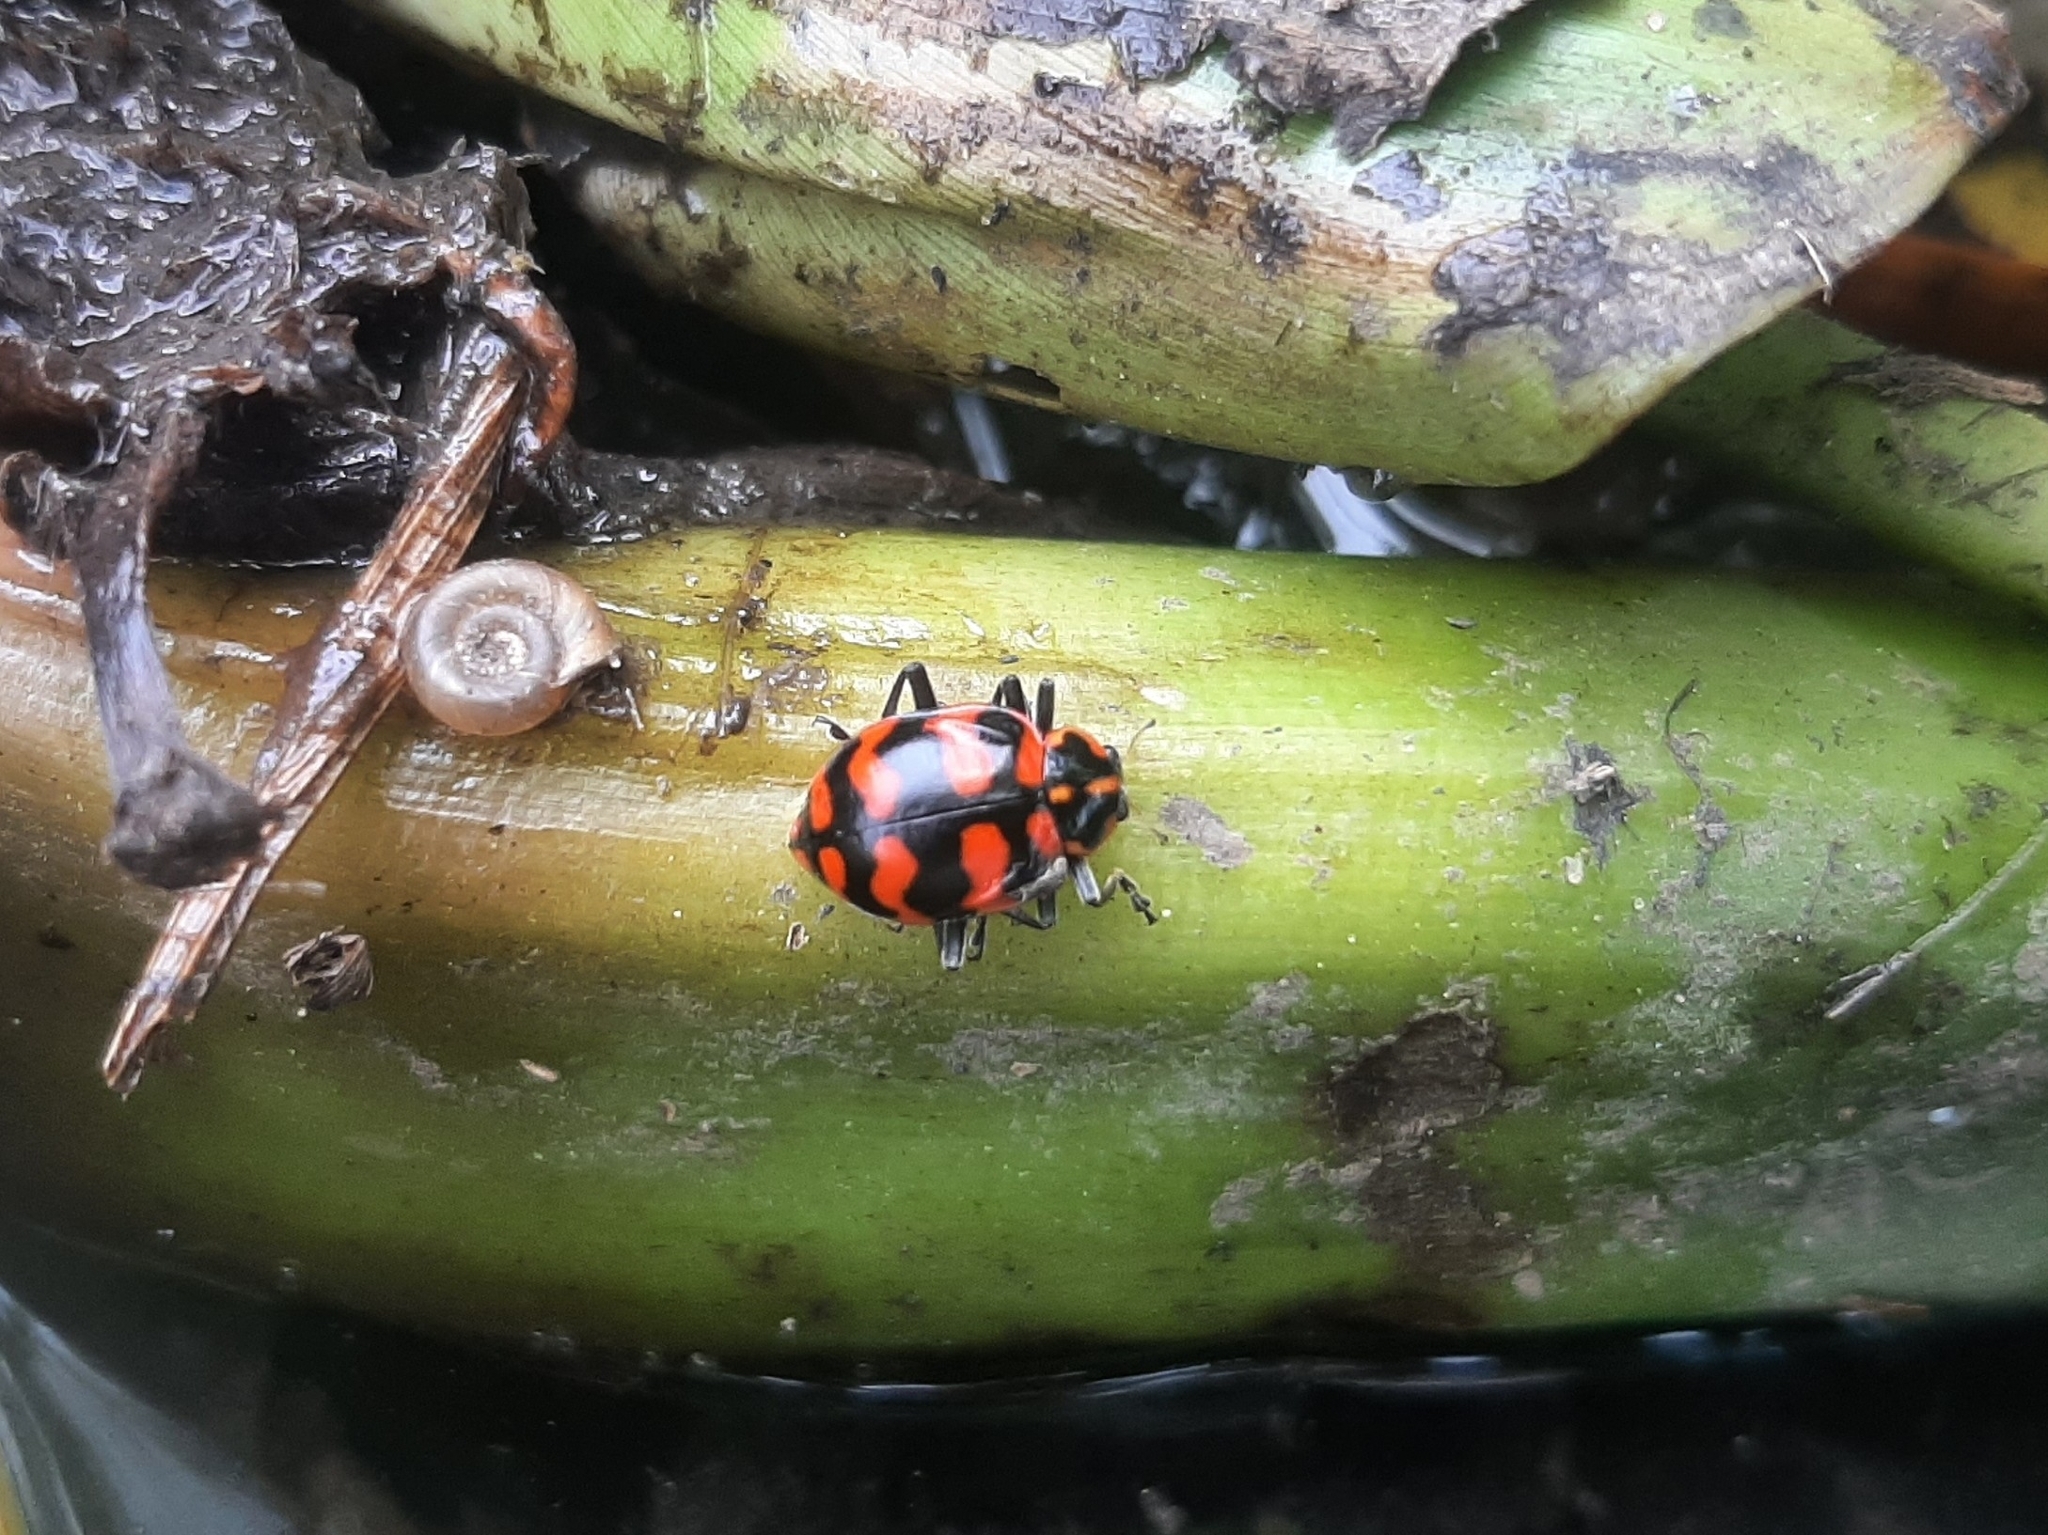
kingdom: Animalia
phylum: Arthropoda
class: Insecta
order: Coleoptera
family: Coccinellidae
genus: Coleomegilla
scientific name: Coleomegilla
